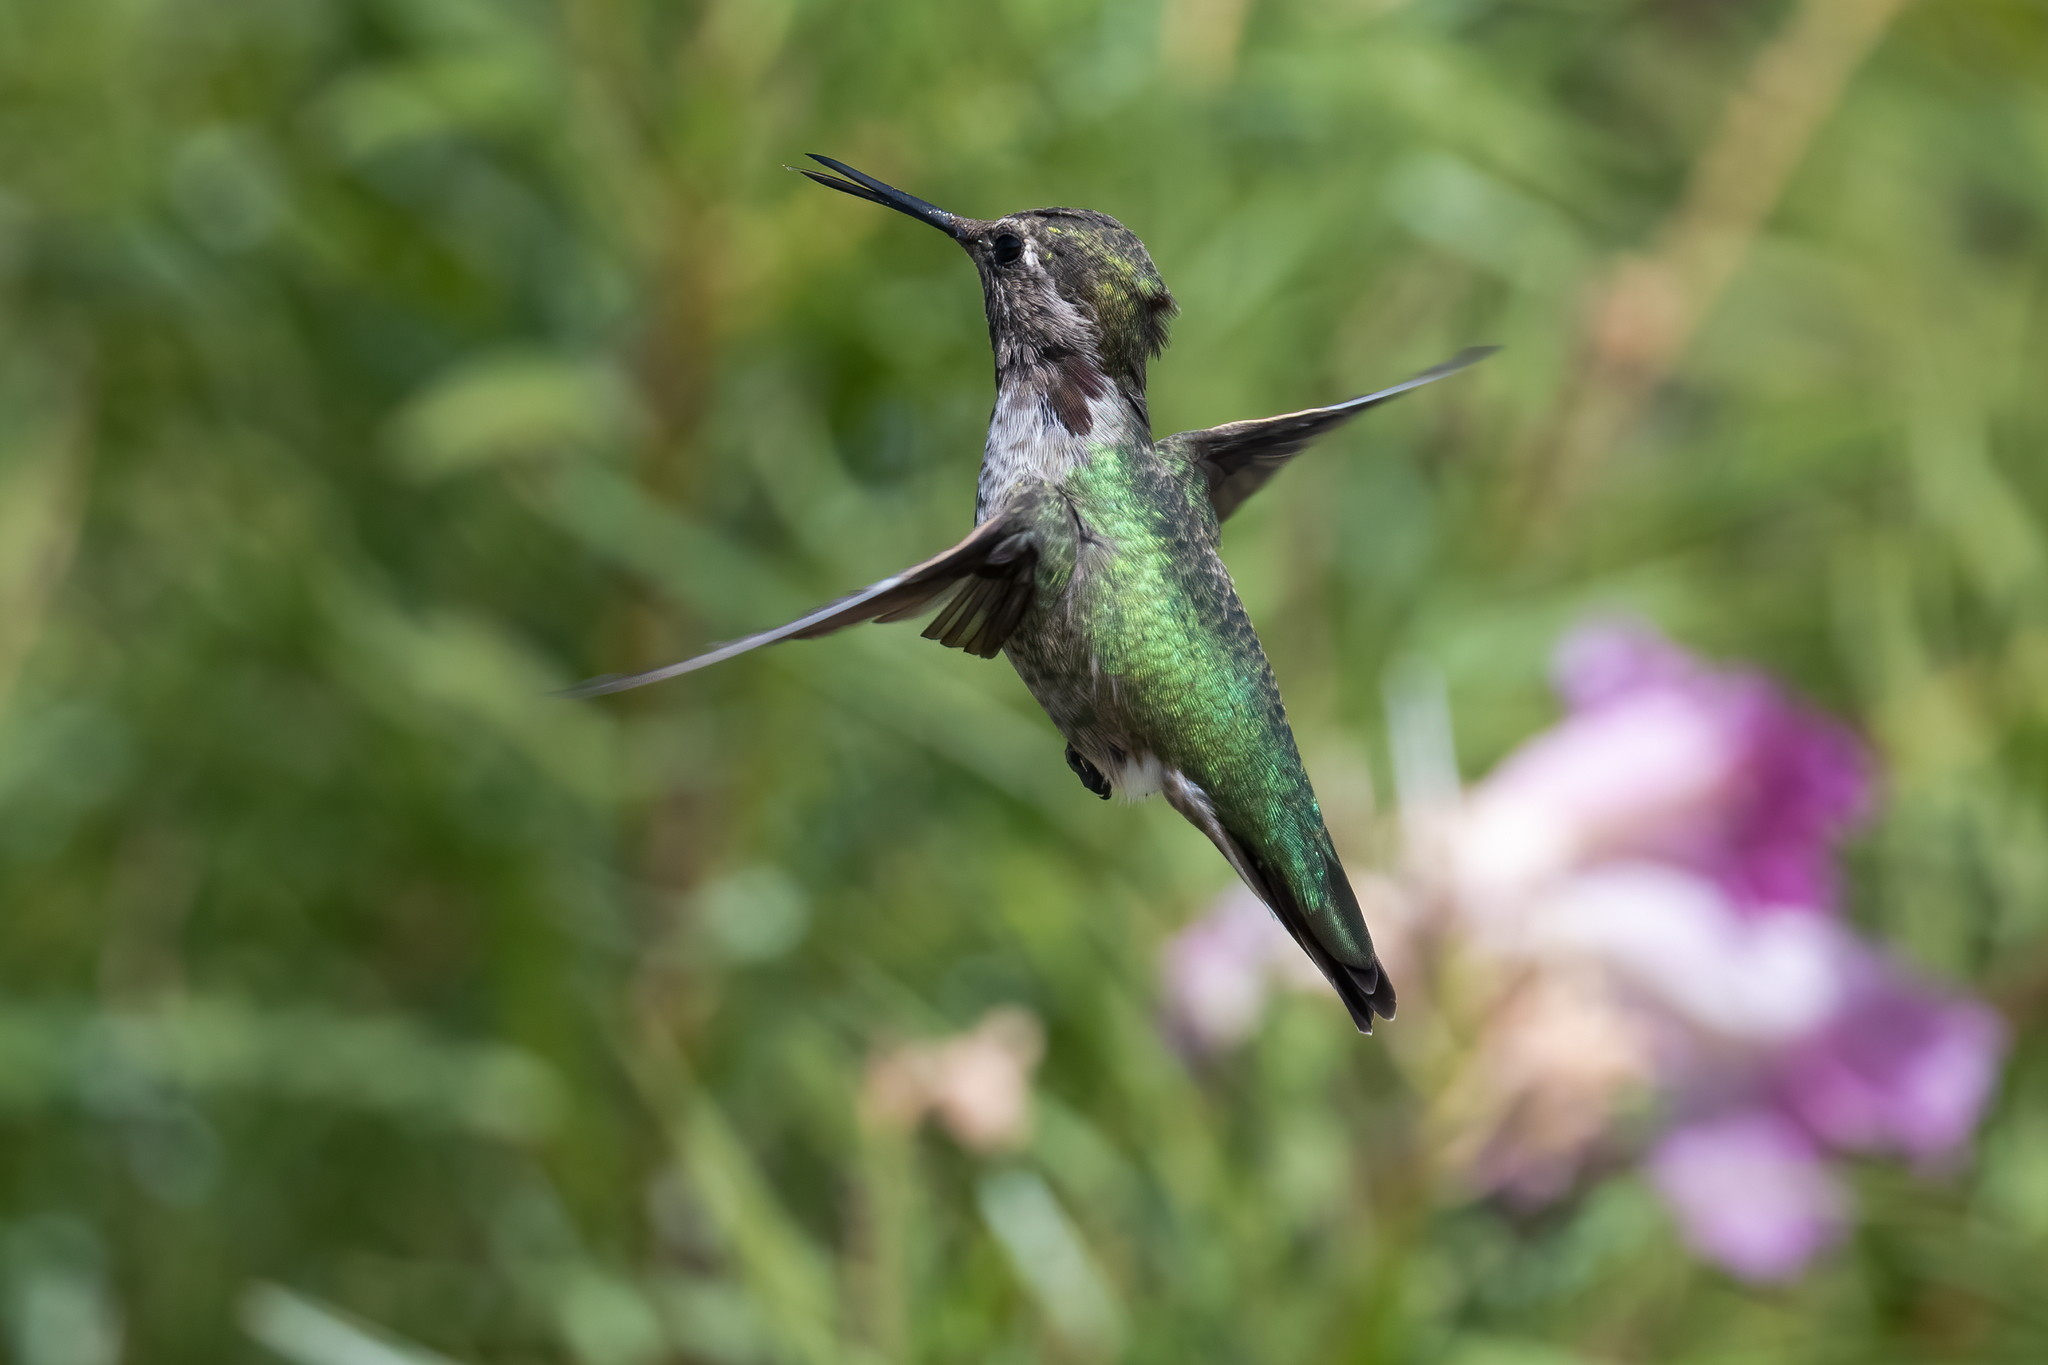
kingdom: Animalia
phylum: Chordata
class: Aves
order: Apodiformes
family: Trochilidae
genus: Calypte
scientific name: Calypte anna
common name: Anna's hummingbird
